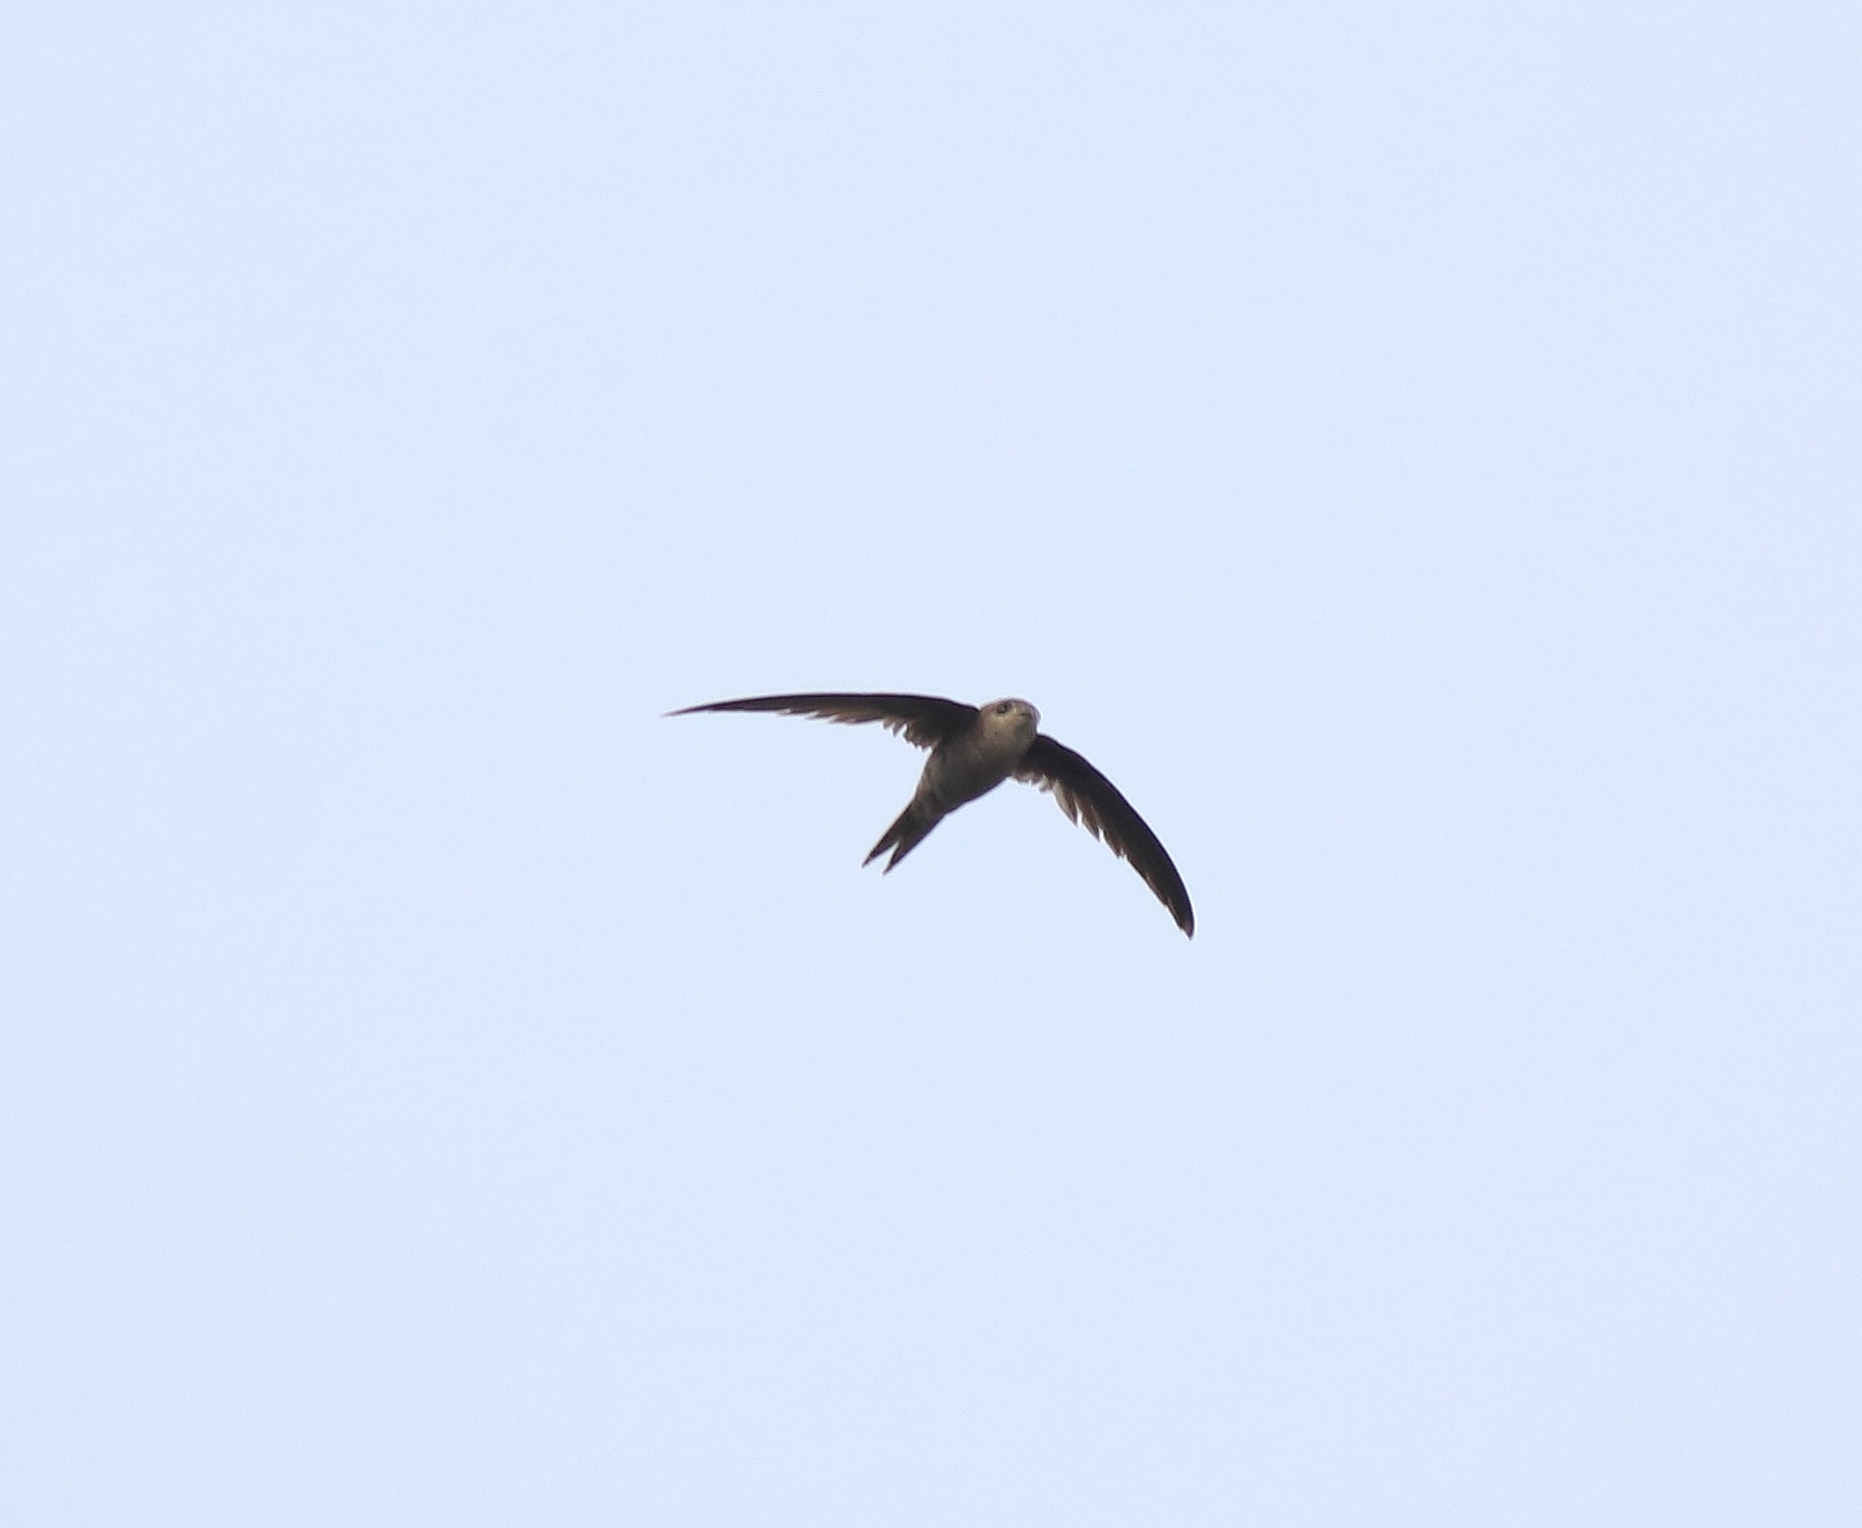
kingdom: Animalia
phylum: Chordata
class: Aves
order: Apodiformes
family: Apodidae
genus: Cypsiurus
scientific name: Cypsiurus balasiensis
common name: Asian palm swift
